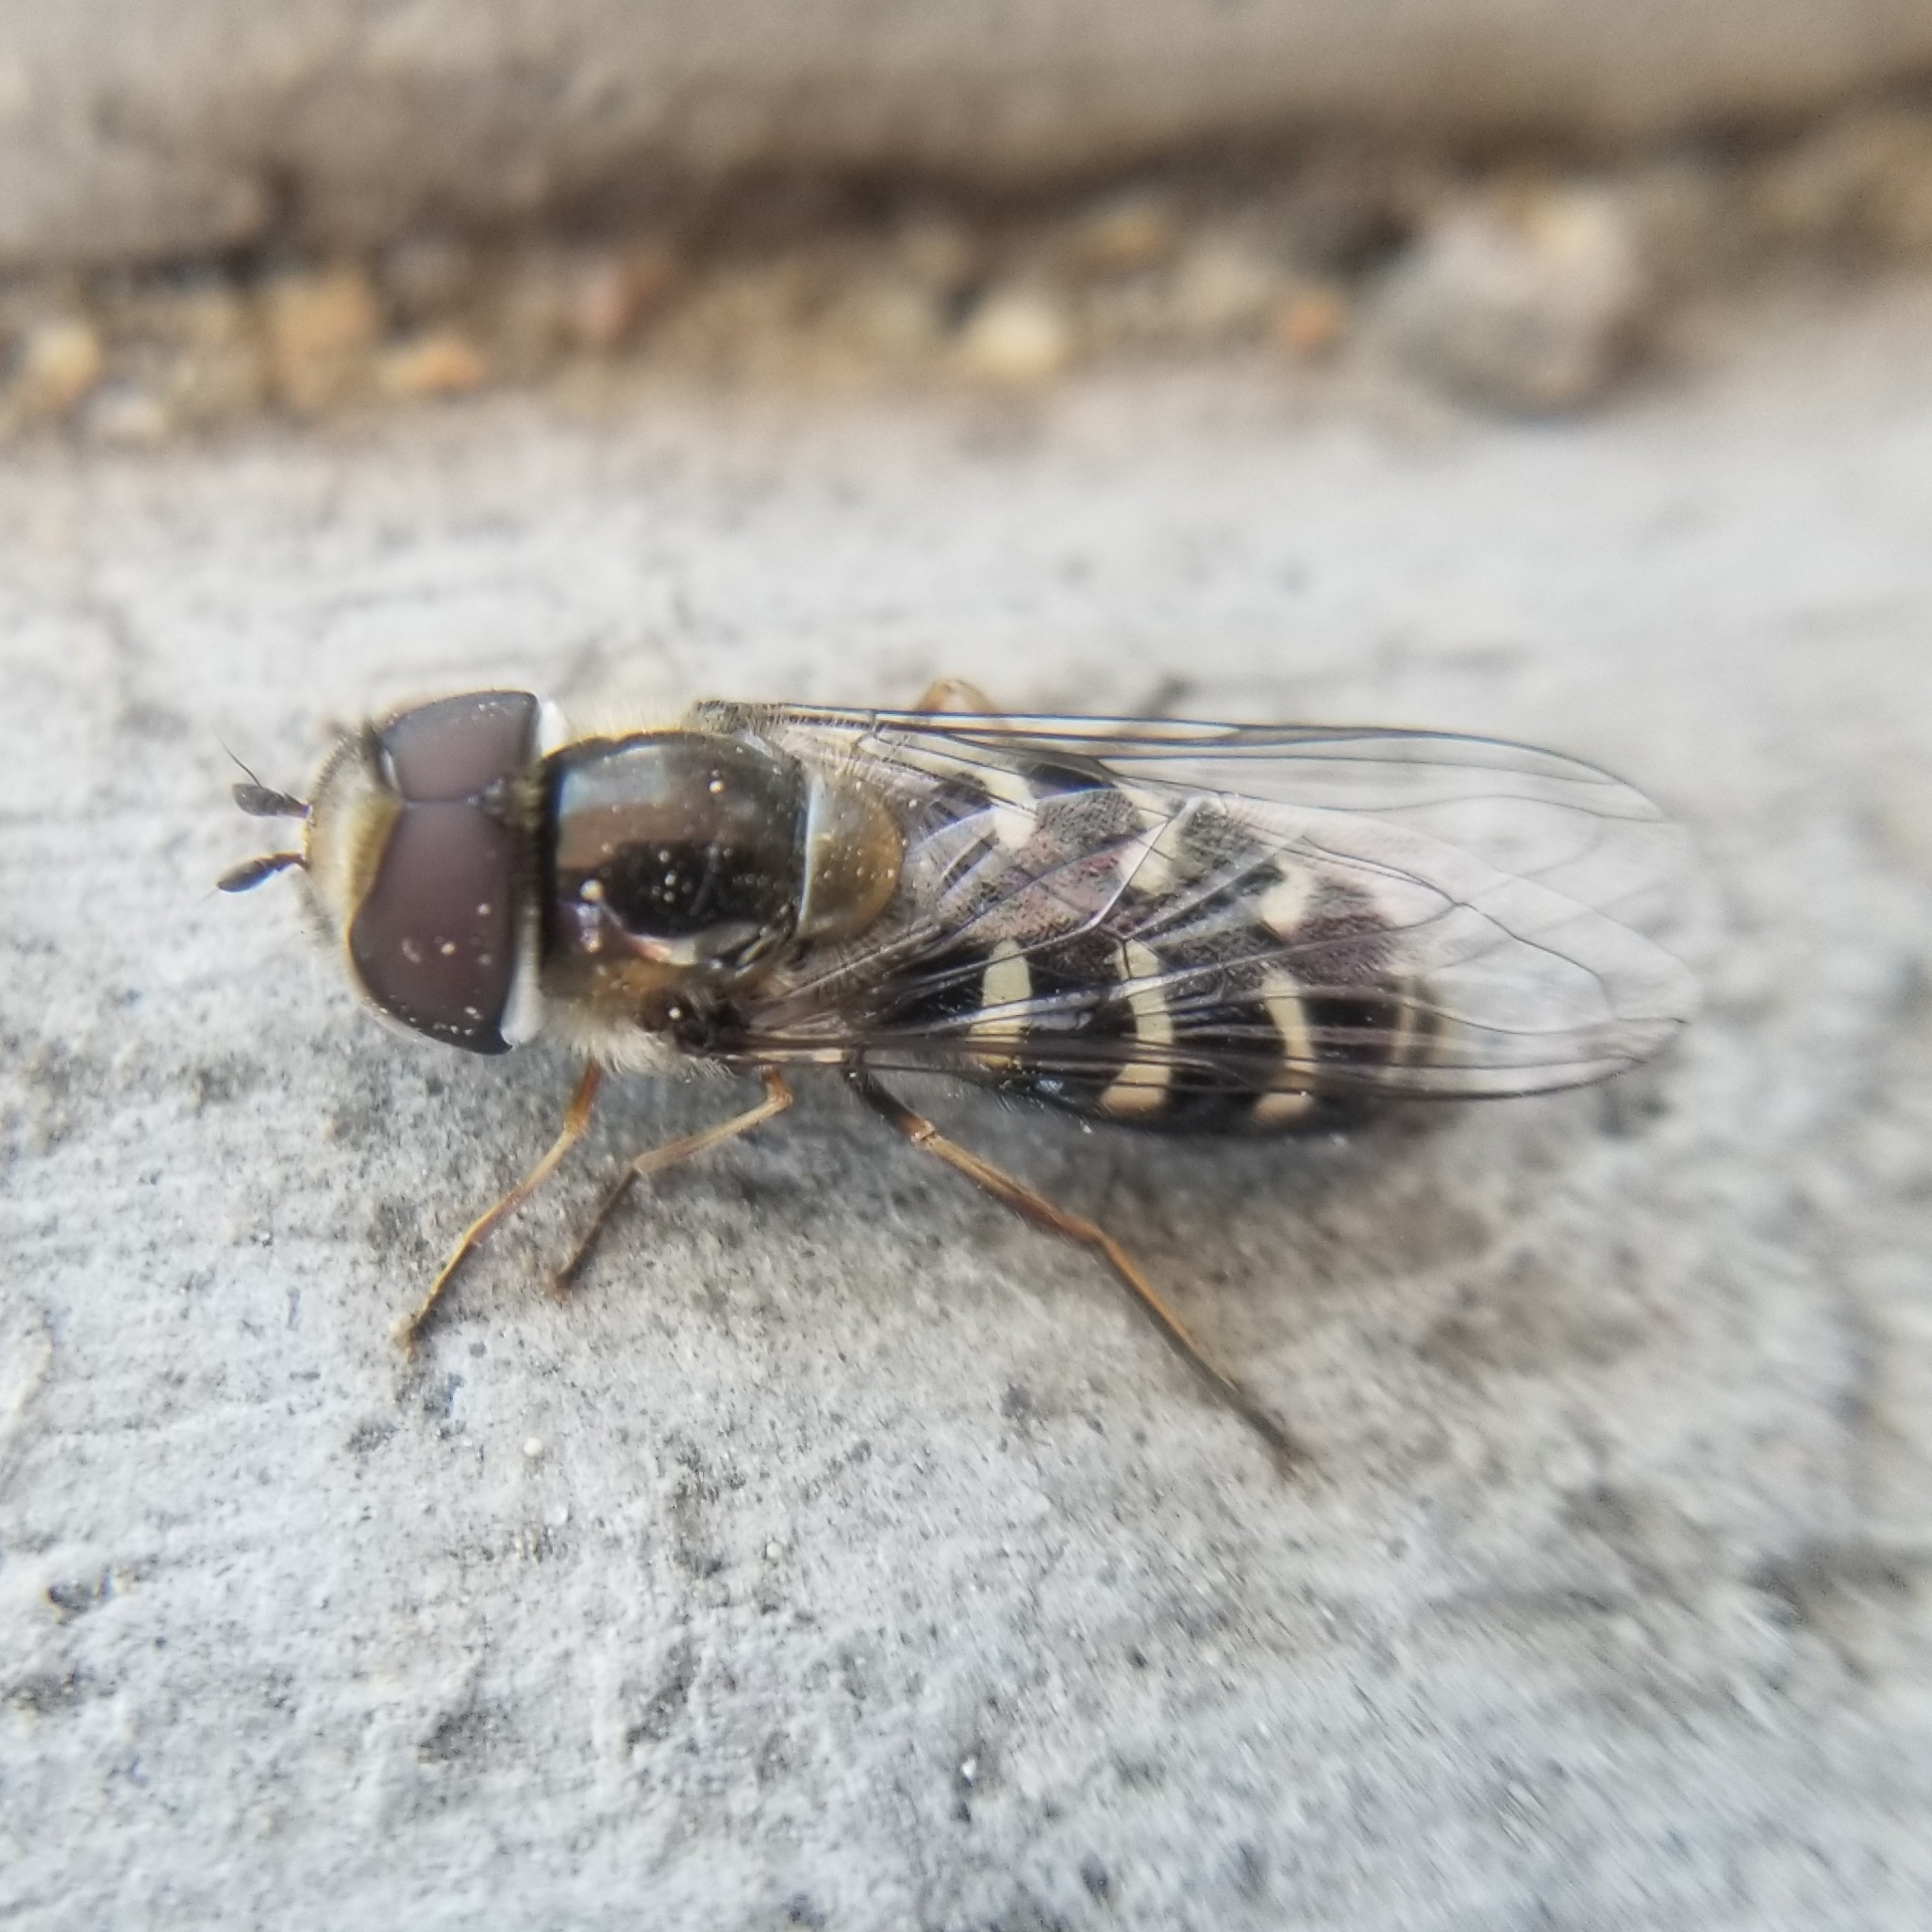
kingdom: Animalia
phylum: Arthropoda
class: Insecta
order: Diptera
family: Syrphidae
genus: Scaeva
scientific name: Scaeva affinis
